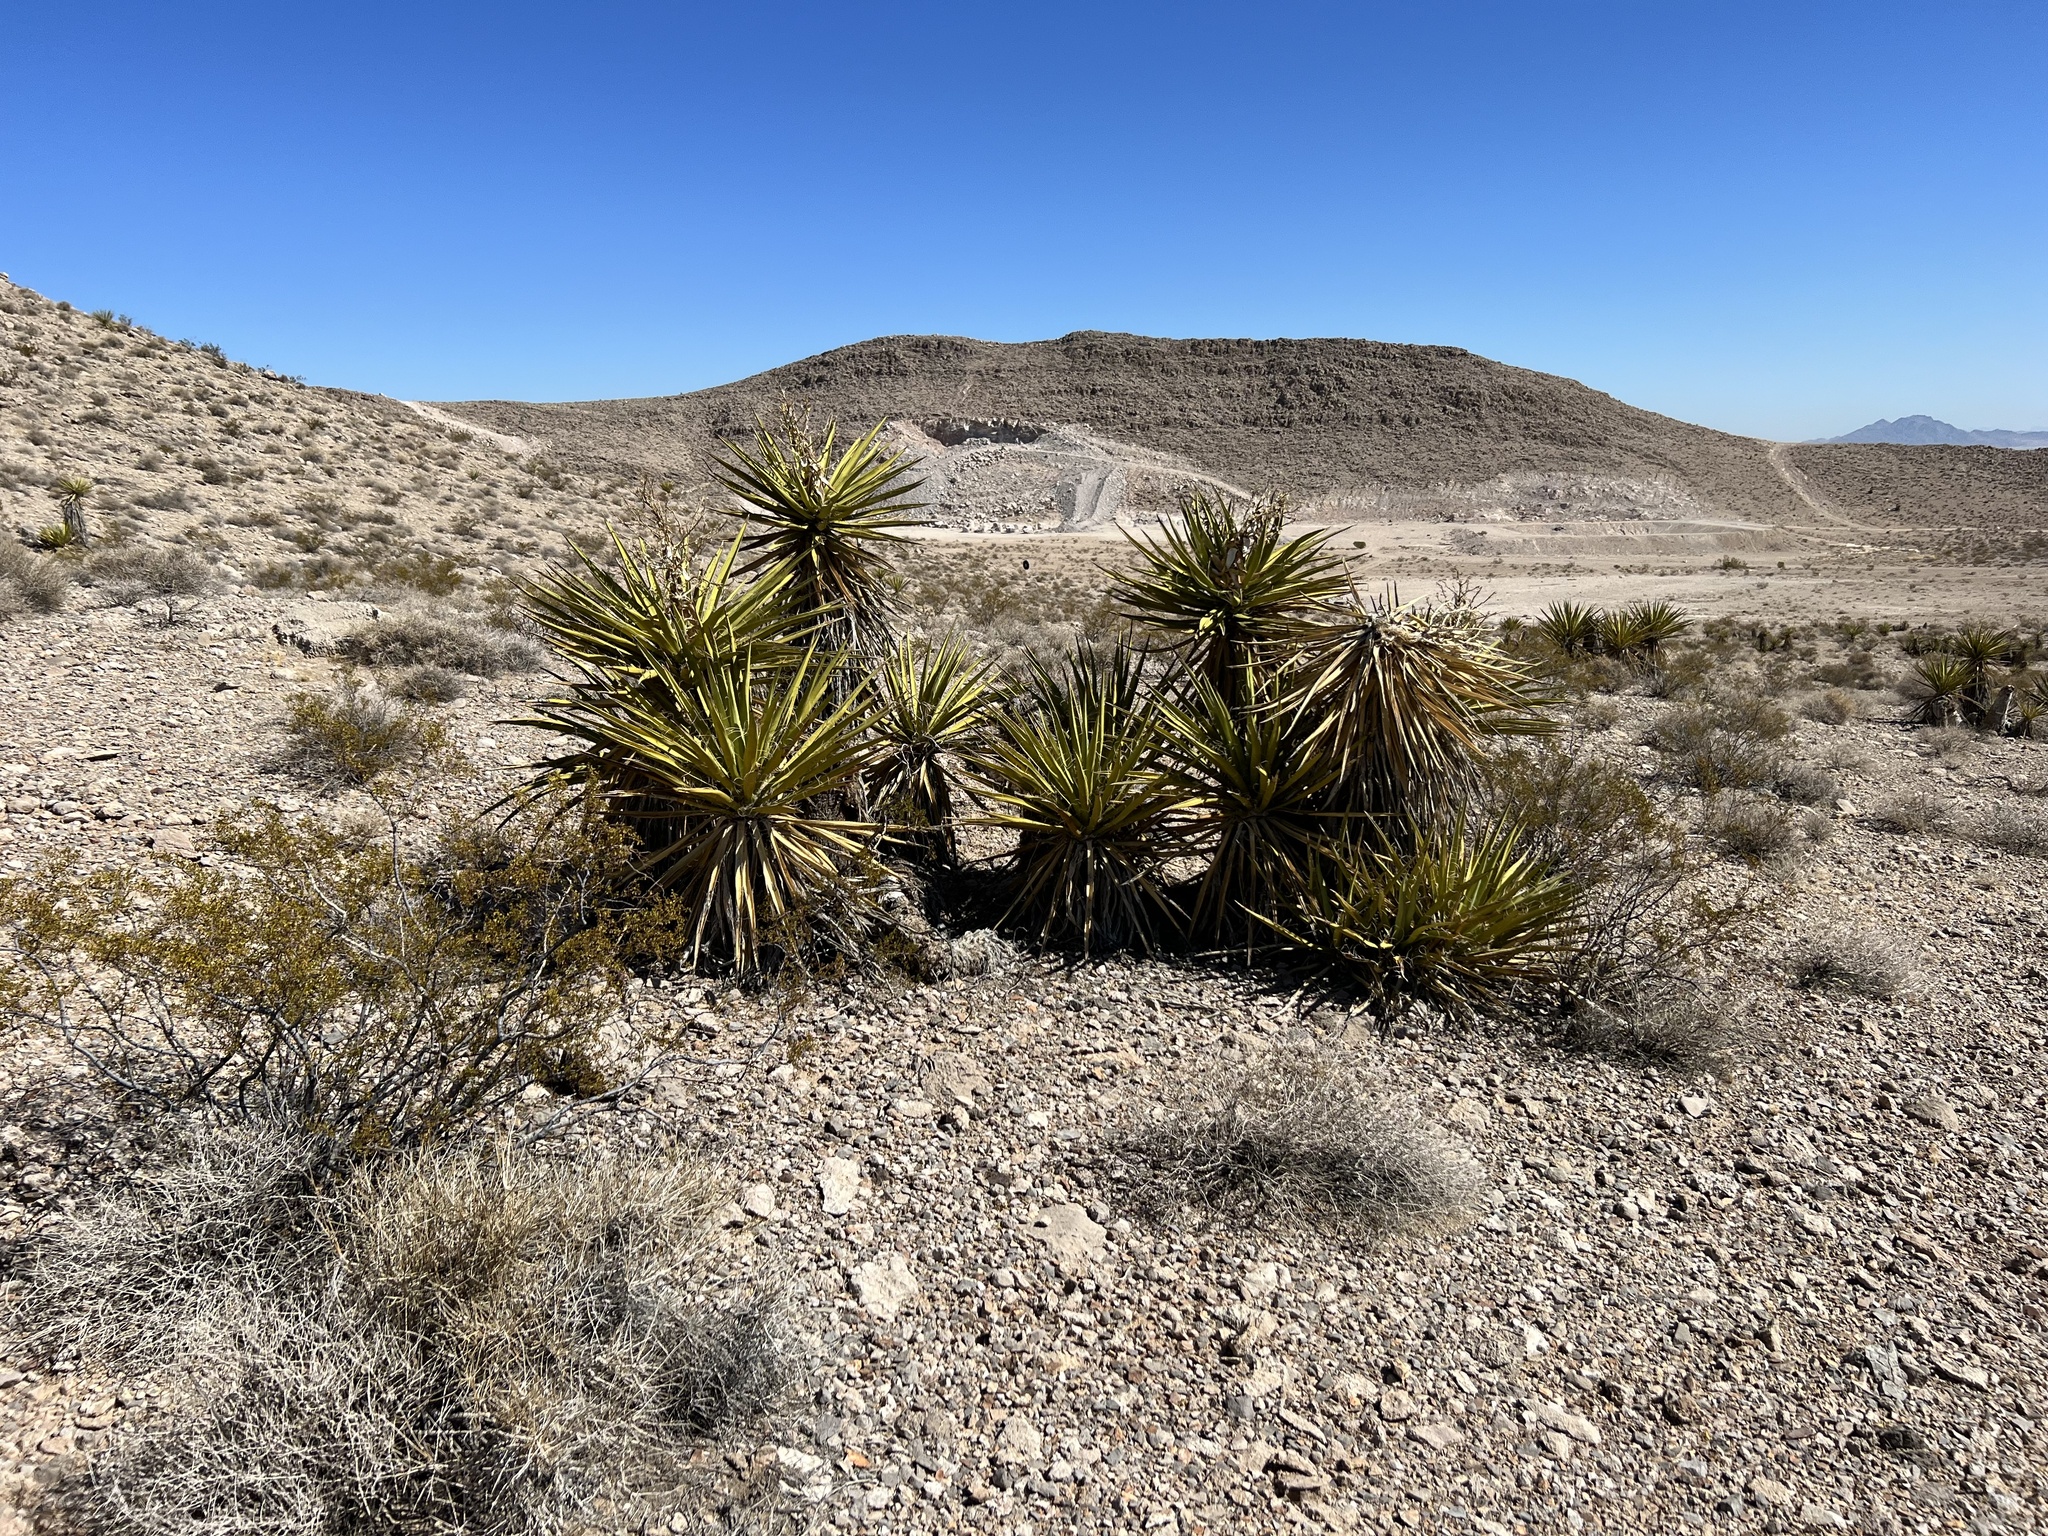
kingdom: Plantae
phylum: Tracheophyta
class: Liliopsida
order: Asparagales
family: Asparagaceae
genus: Yucca
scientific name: Yucca schidigera
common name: Mojave yucca
